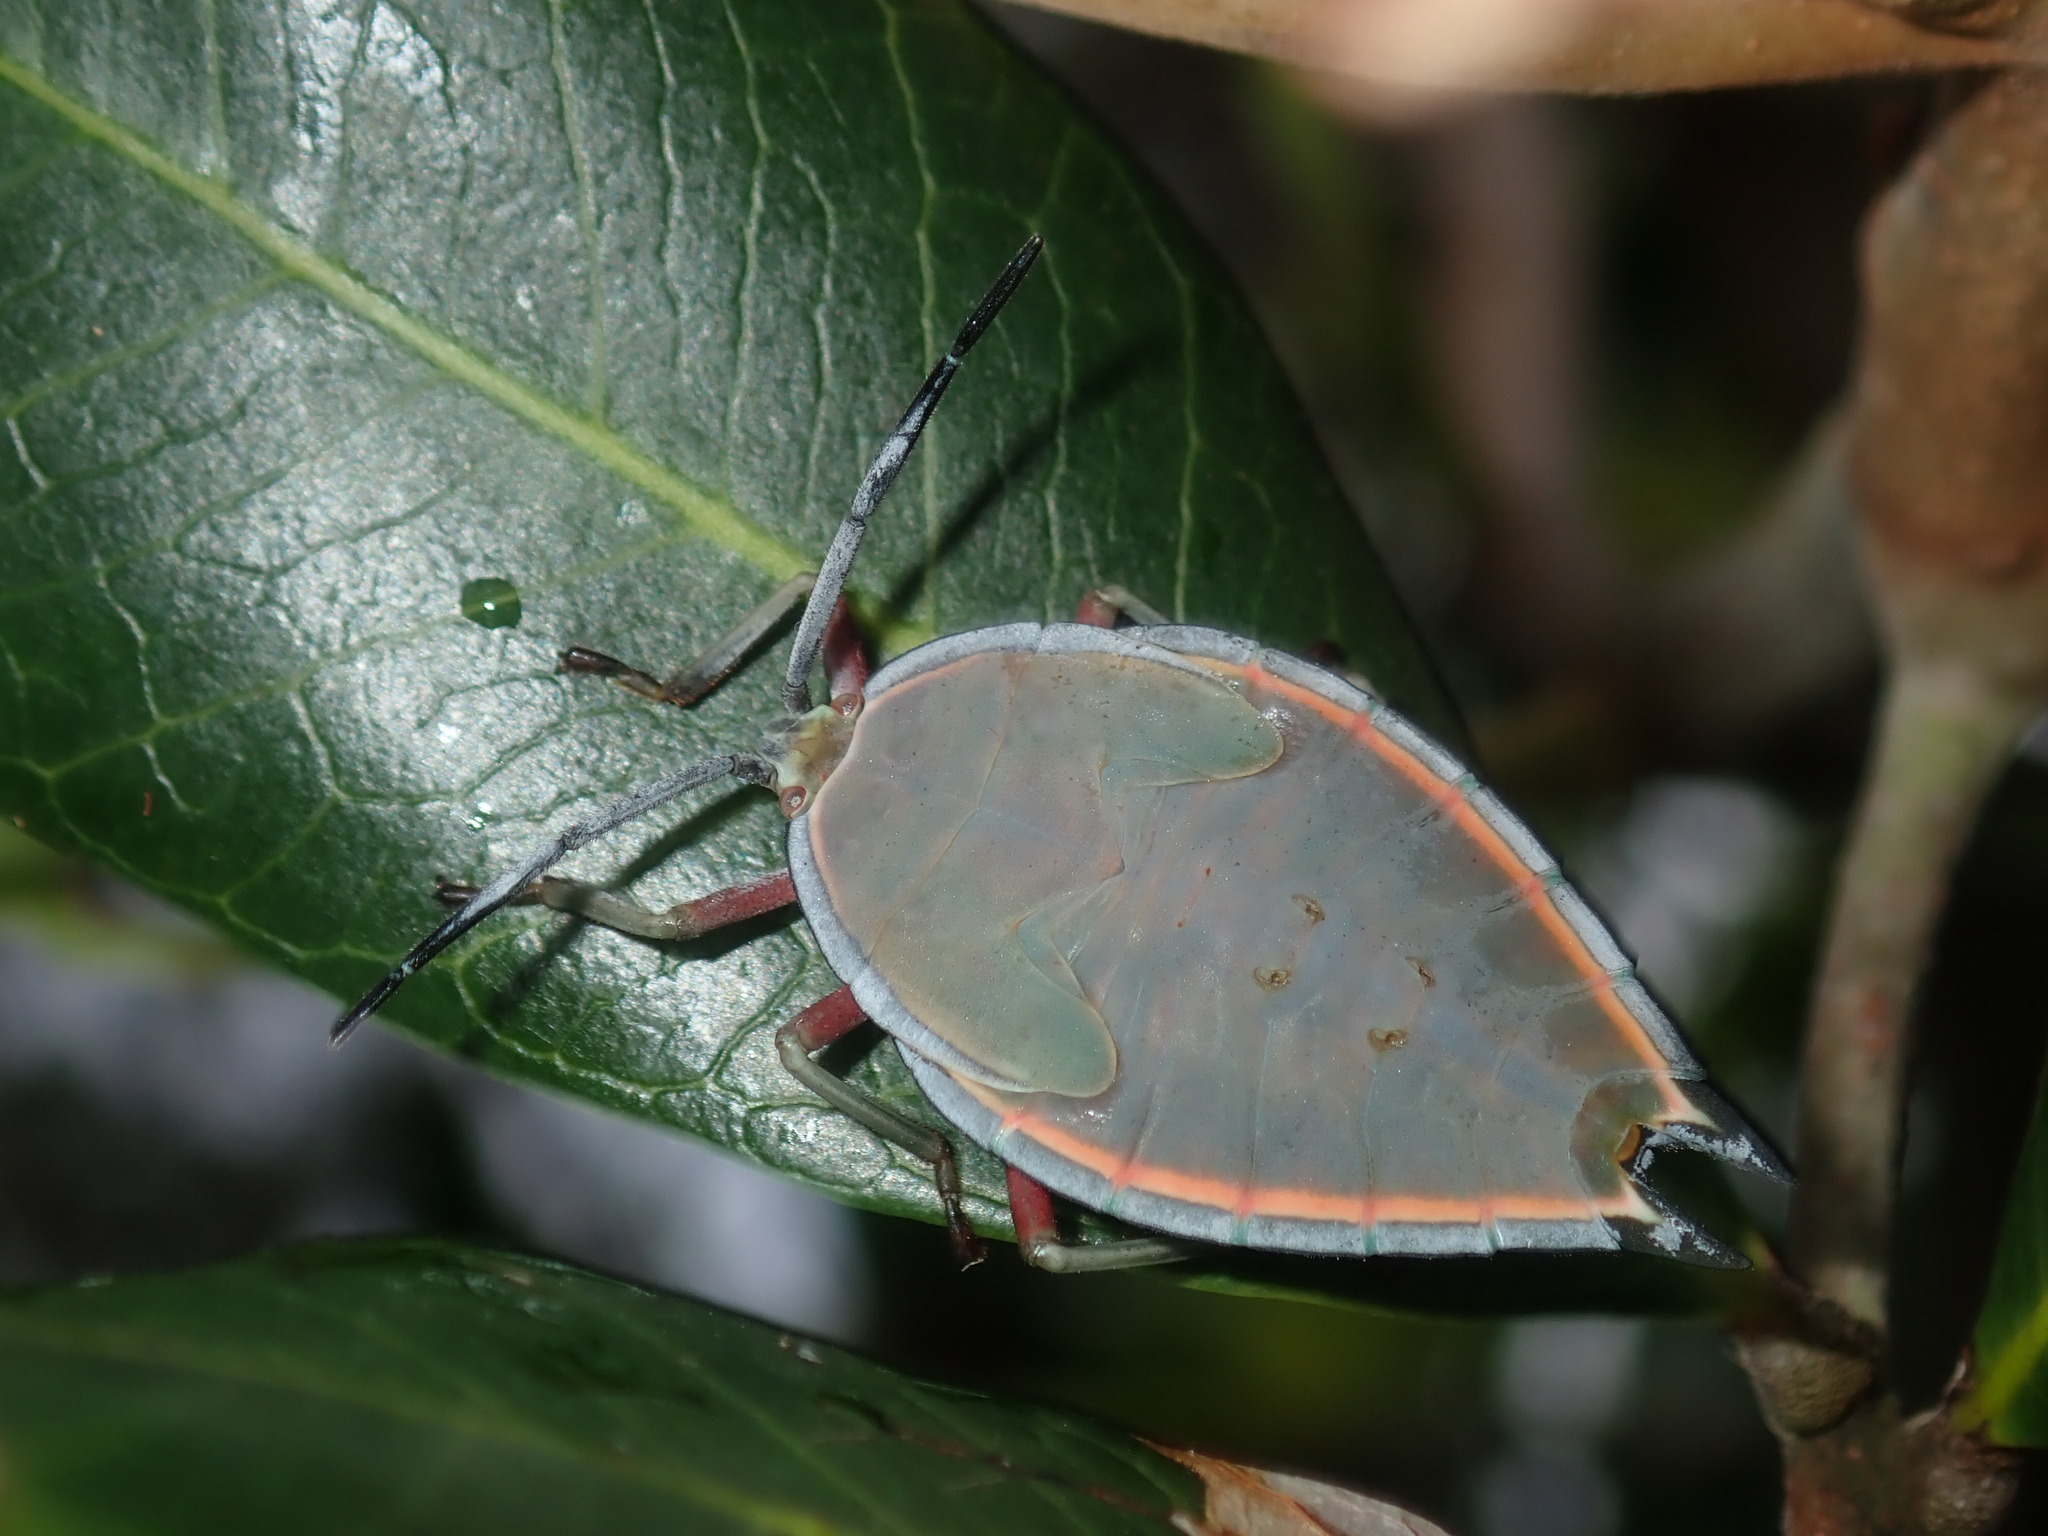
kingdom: Animalia
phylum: Arthropoda
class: Insecta
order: Hemiptera
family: Tessaratomidae
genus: Lyramorpha
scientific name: Lyramorpha rosea
